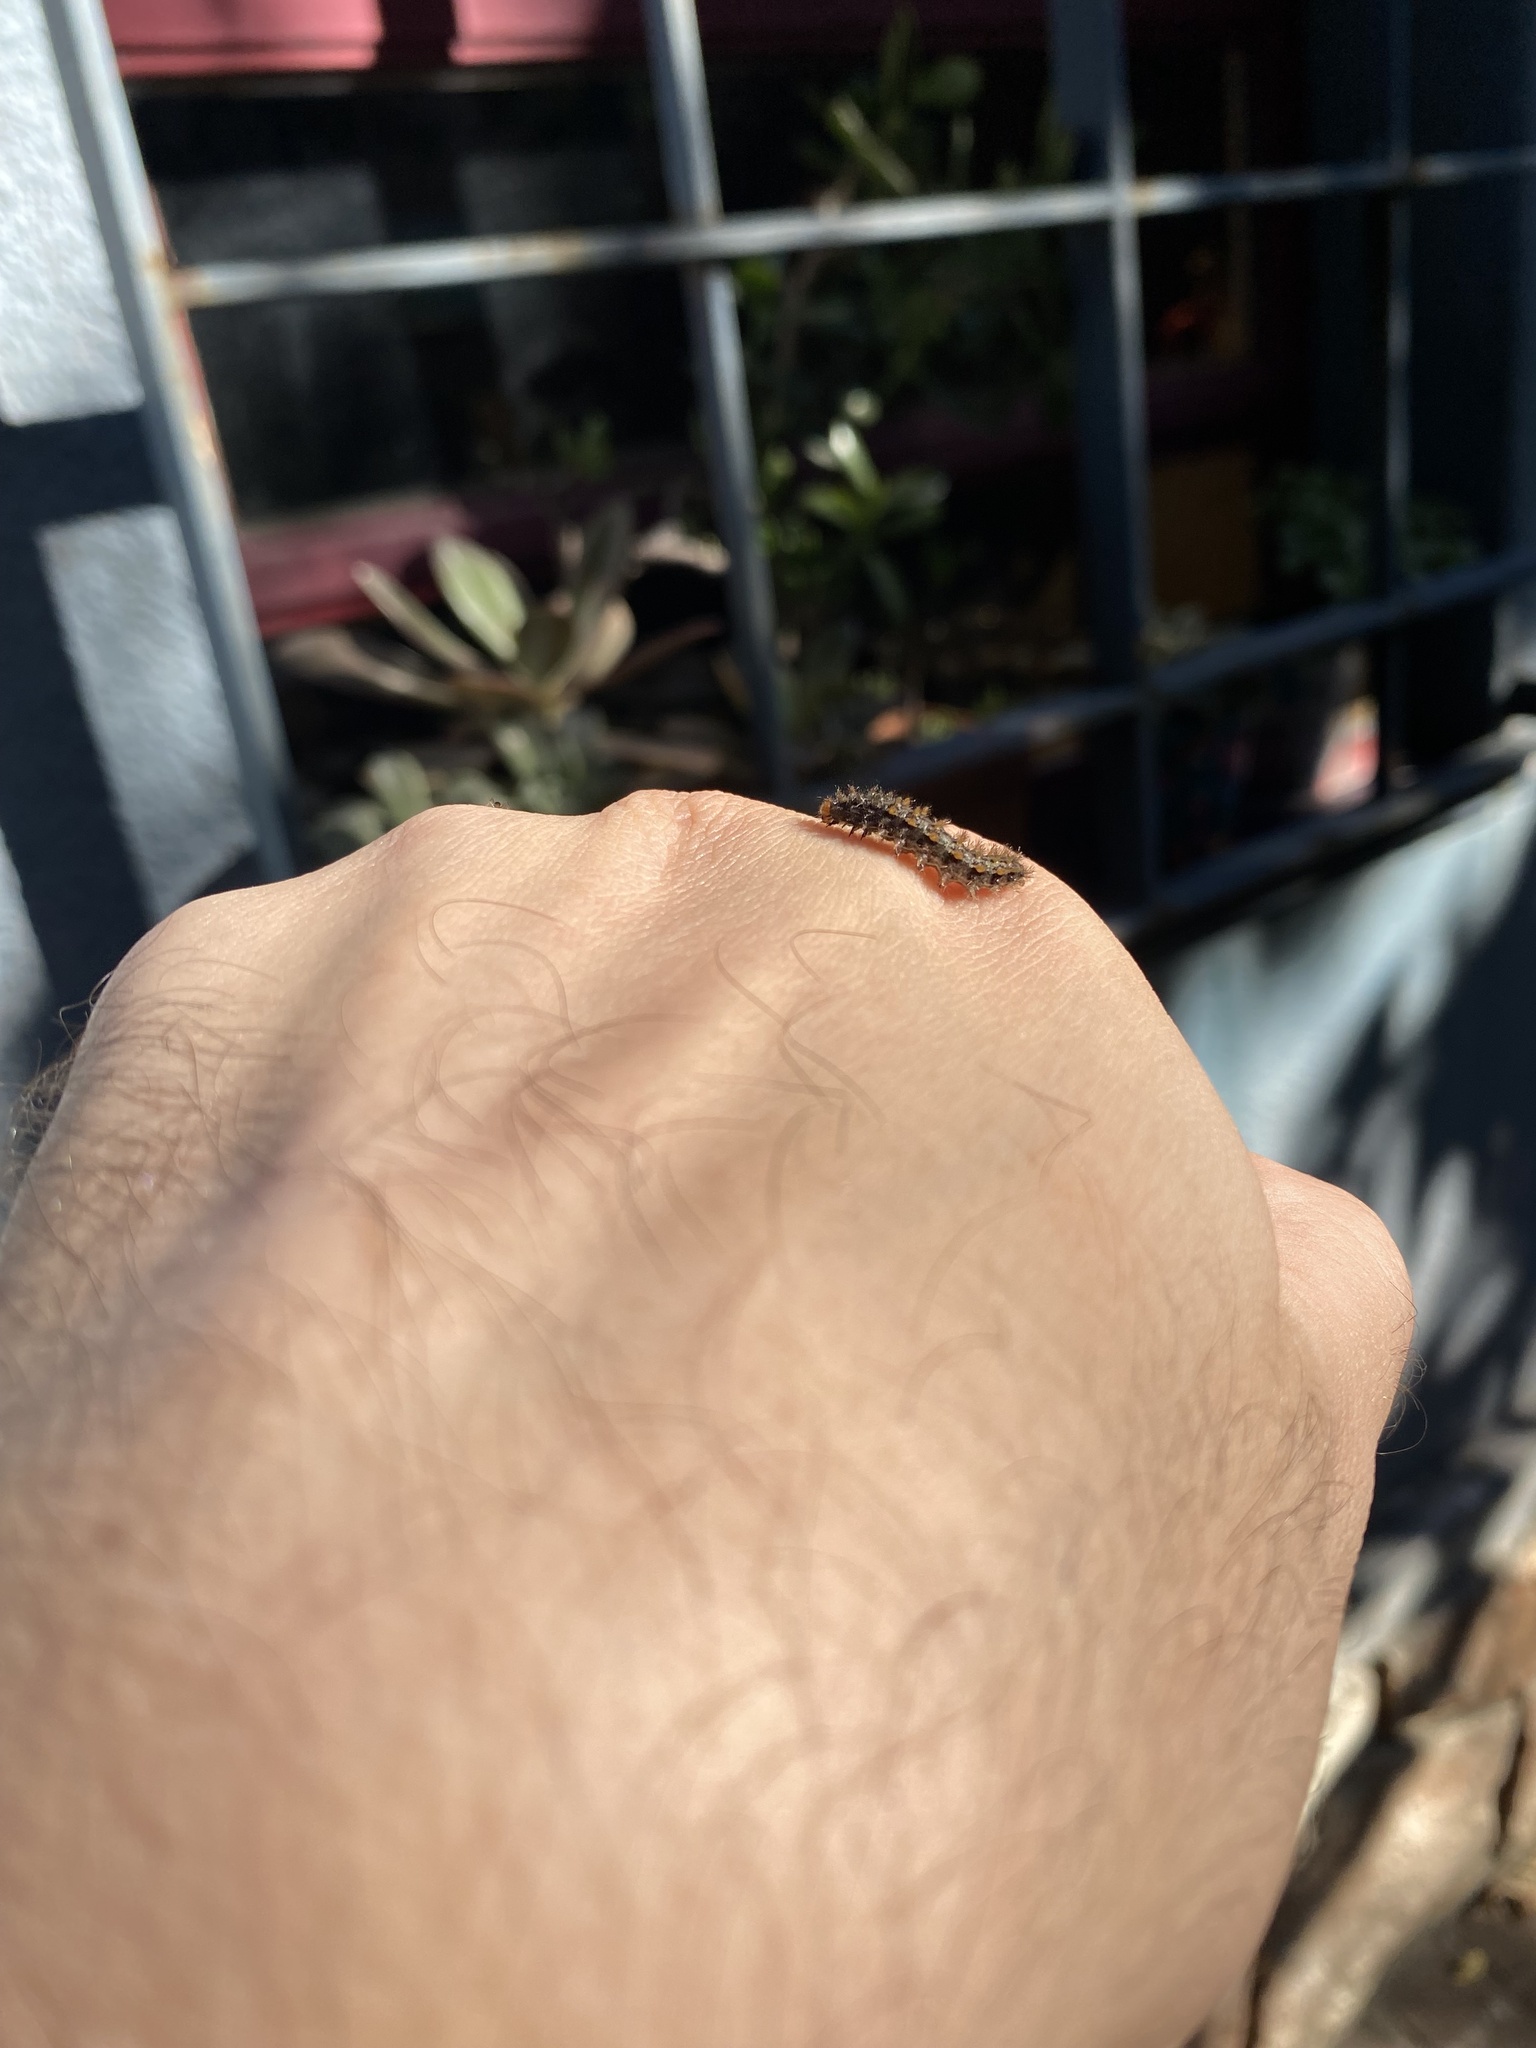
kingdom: Animalia
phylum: Arthropoda
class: Insecta
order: Lepidoptera
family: Nymphalidae
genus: Ortilia
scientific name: Ortilia ithra
